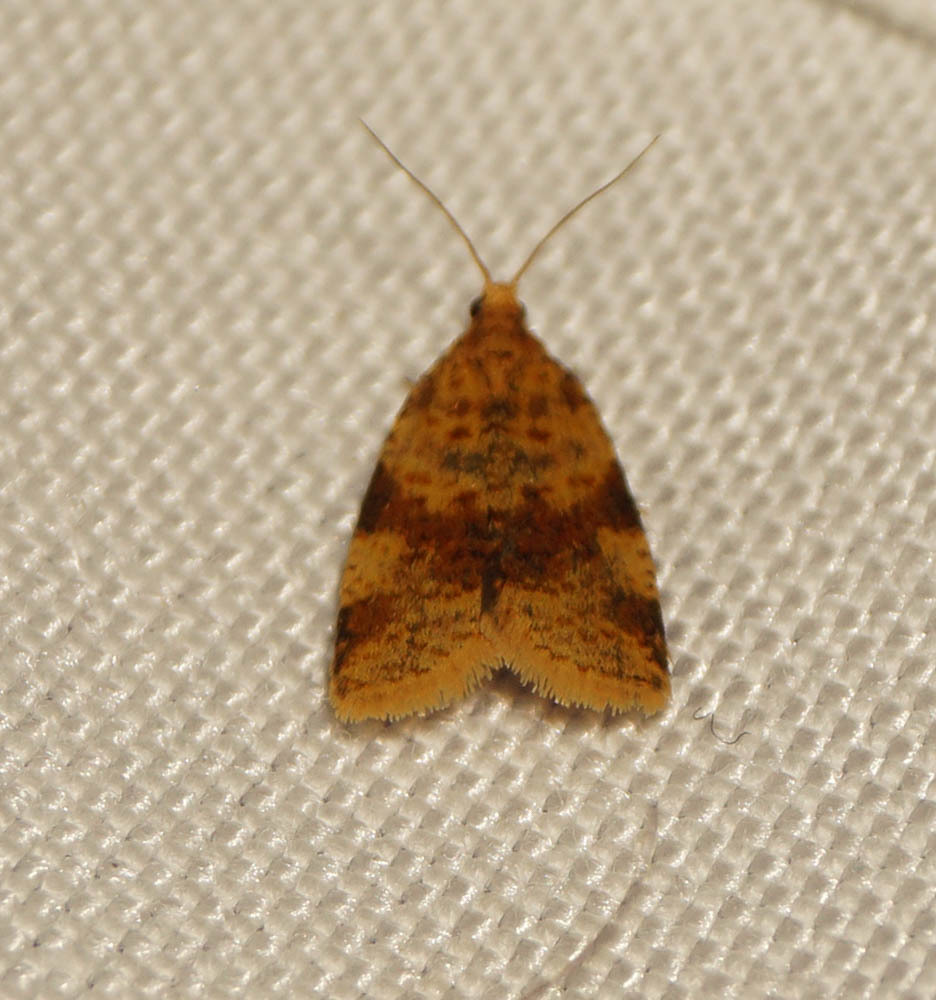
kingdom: Animalia
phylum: Arthropoda
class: Insecta
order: Lepidoptera
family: Tortricidae
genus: Epagoge
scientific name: Epagoge grotiana
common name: Brown-barred twist
